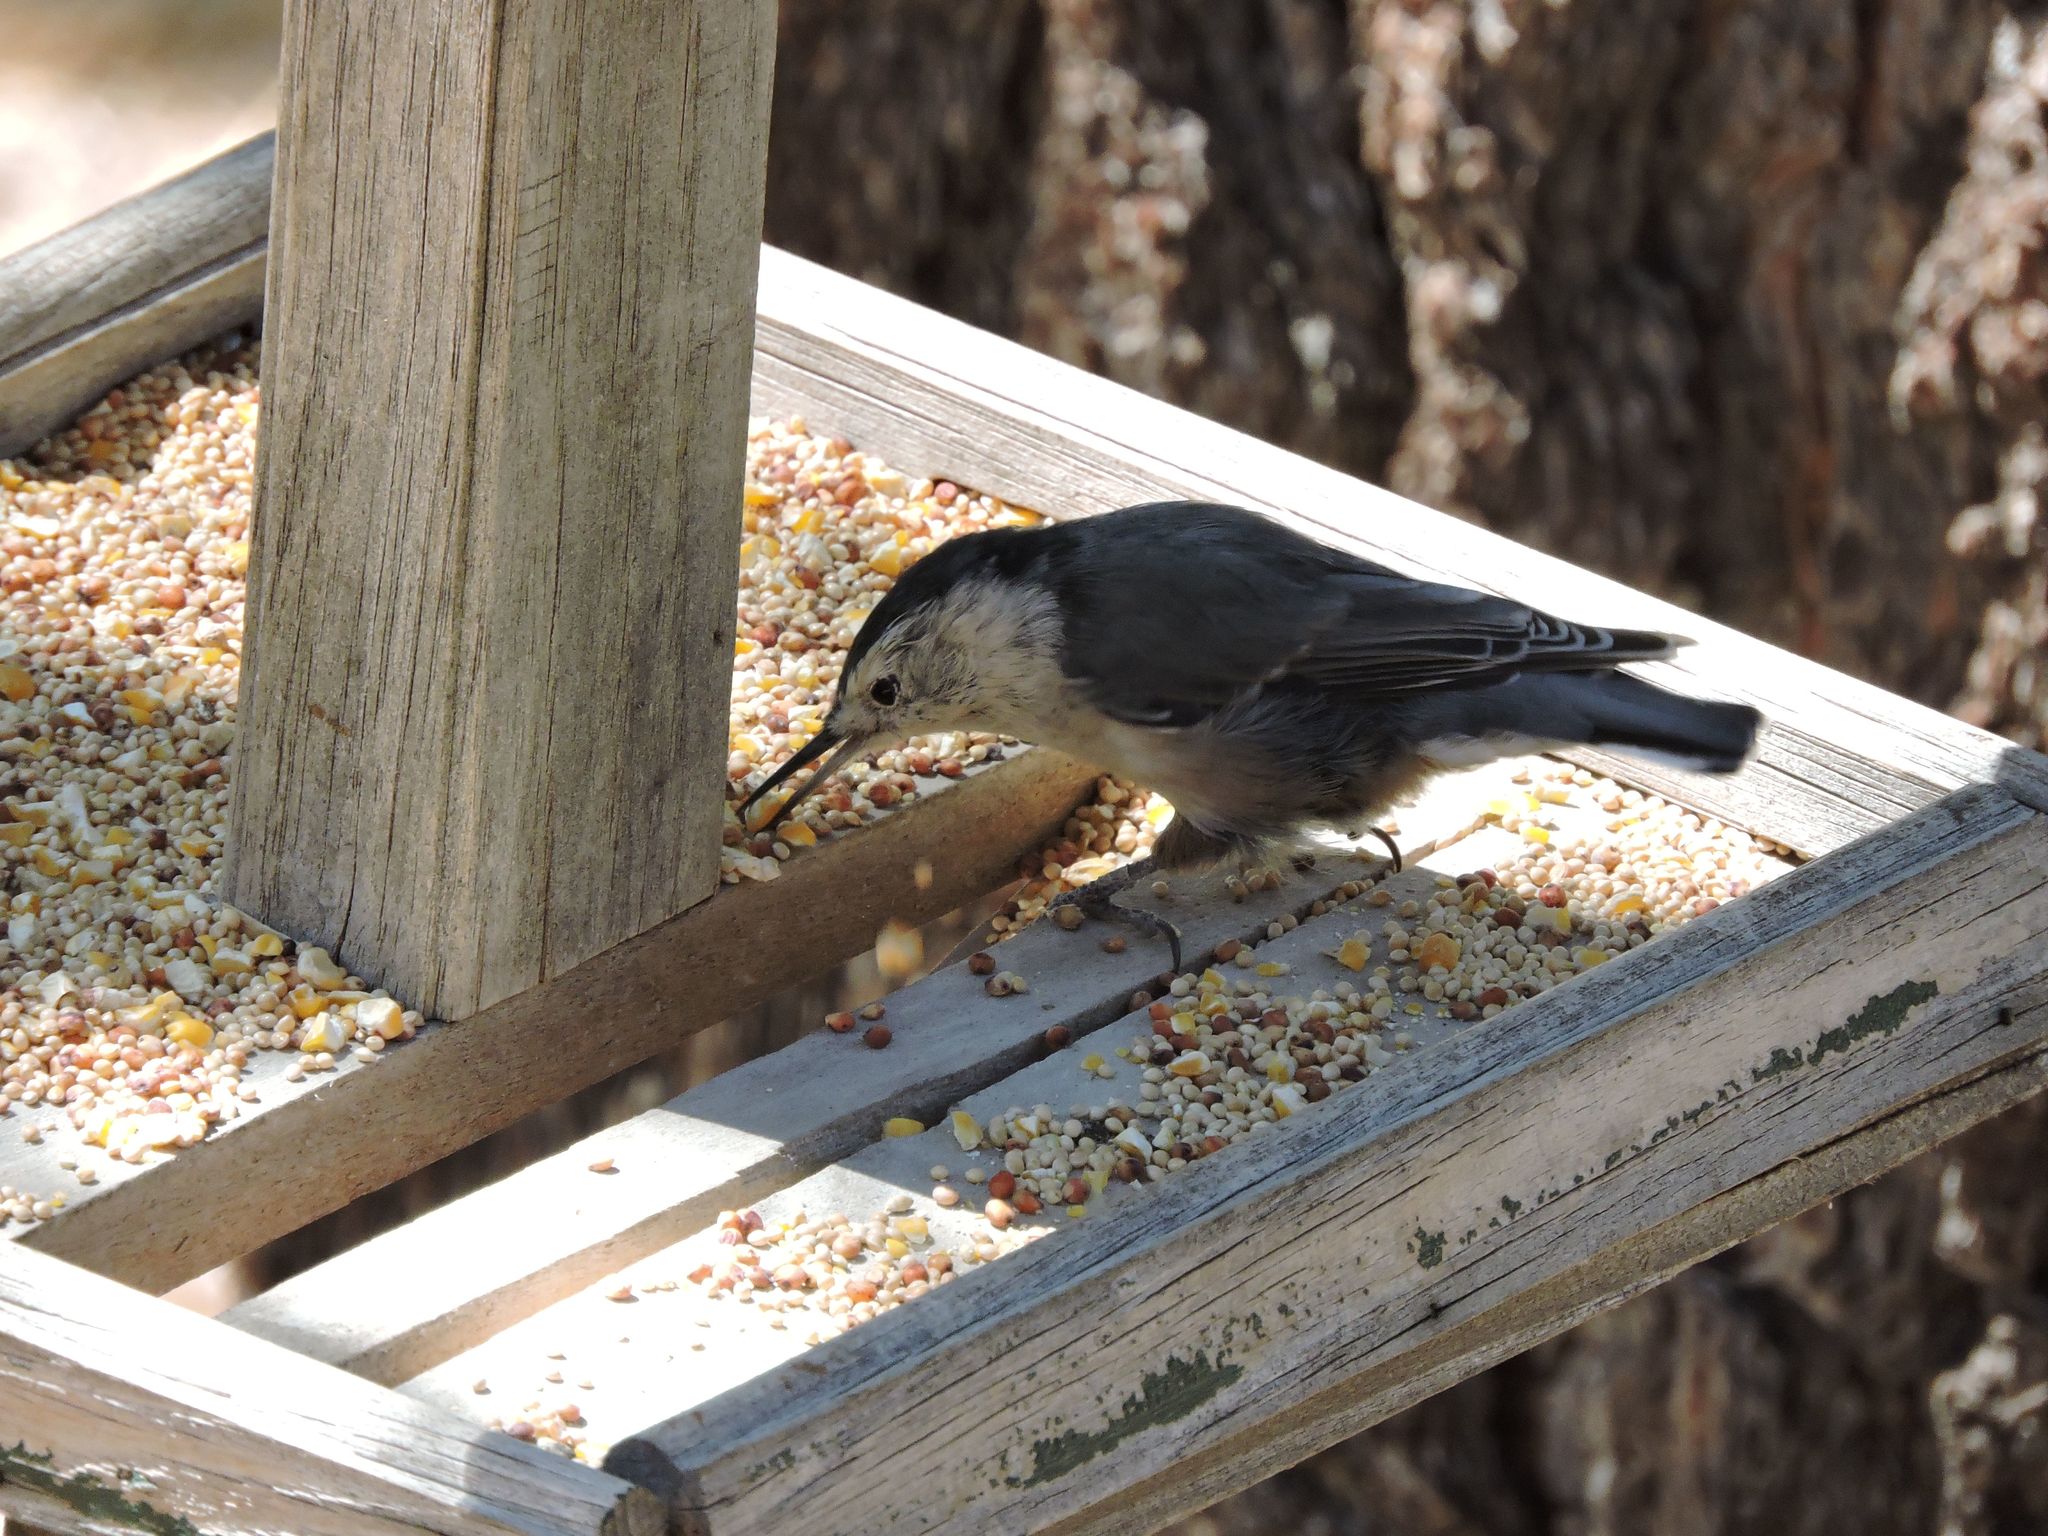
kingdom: Animalia
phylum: Chordata
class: Aves
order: Passeriformes
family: Sittidae
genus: Sitta
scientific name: Sitta carolinensis
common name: White-breasted nuthatch
